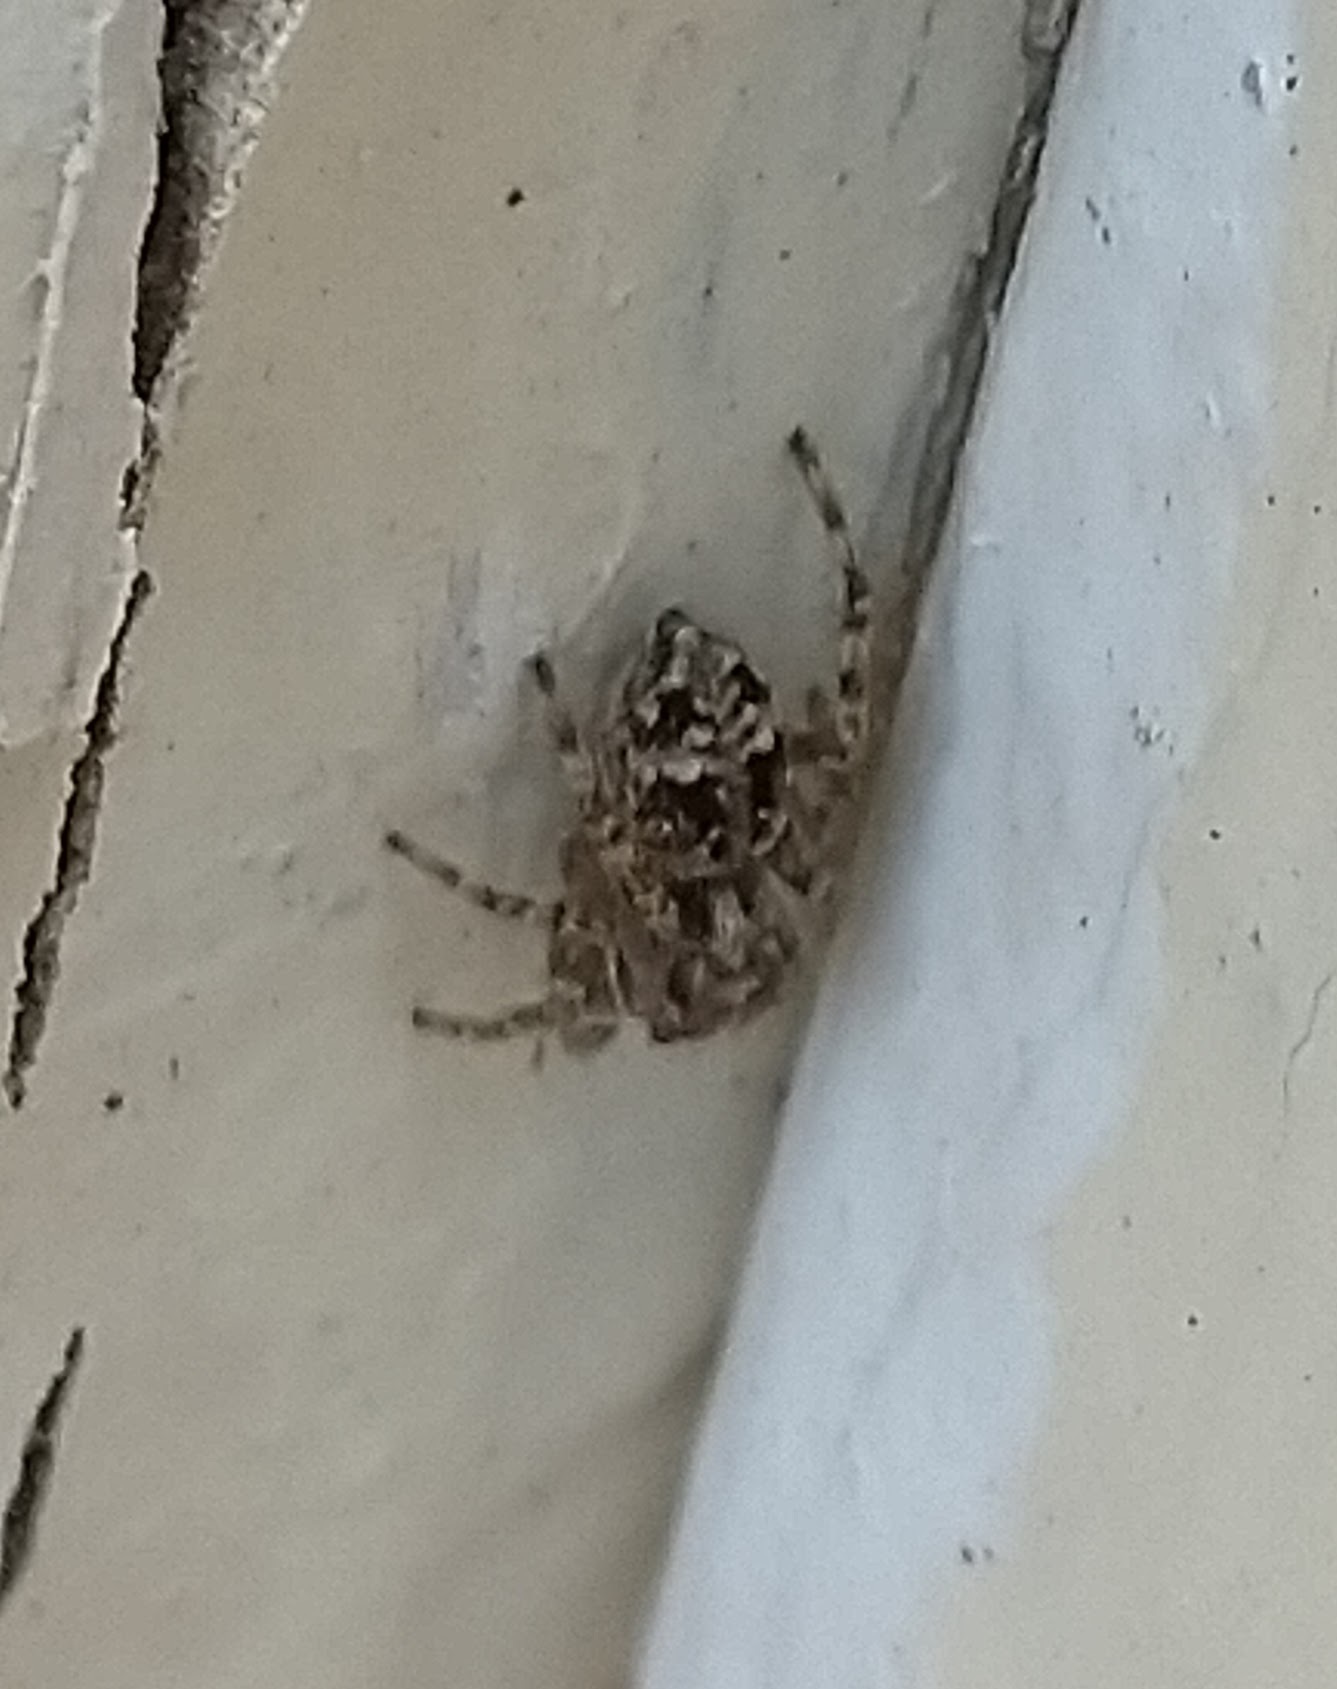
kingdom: Animalia
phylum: Arthropoda
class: Arachnida
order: Araneae
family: Salticidae
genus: Attulus
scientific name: Attulus fasciger
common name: Asiatic wall jumping spider
